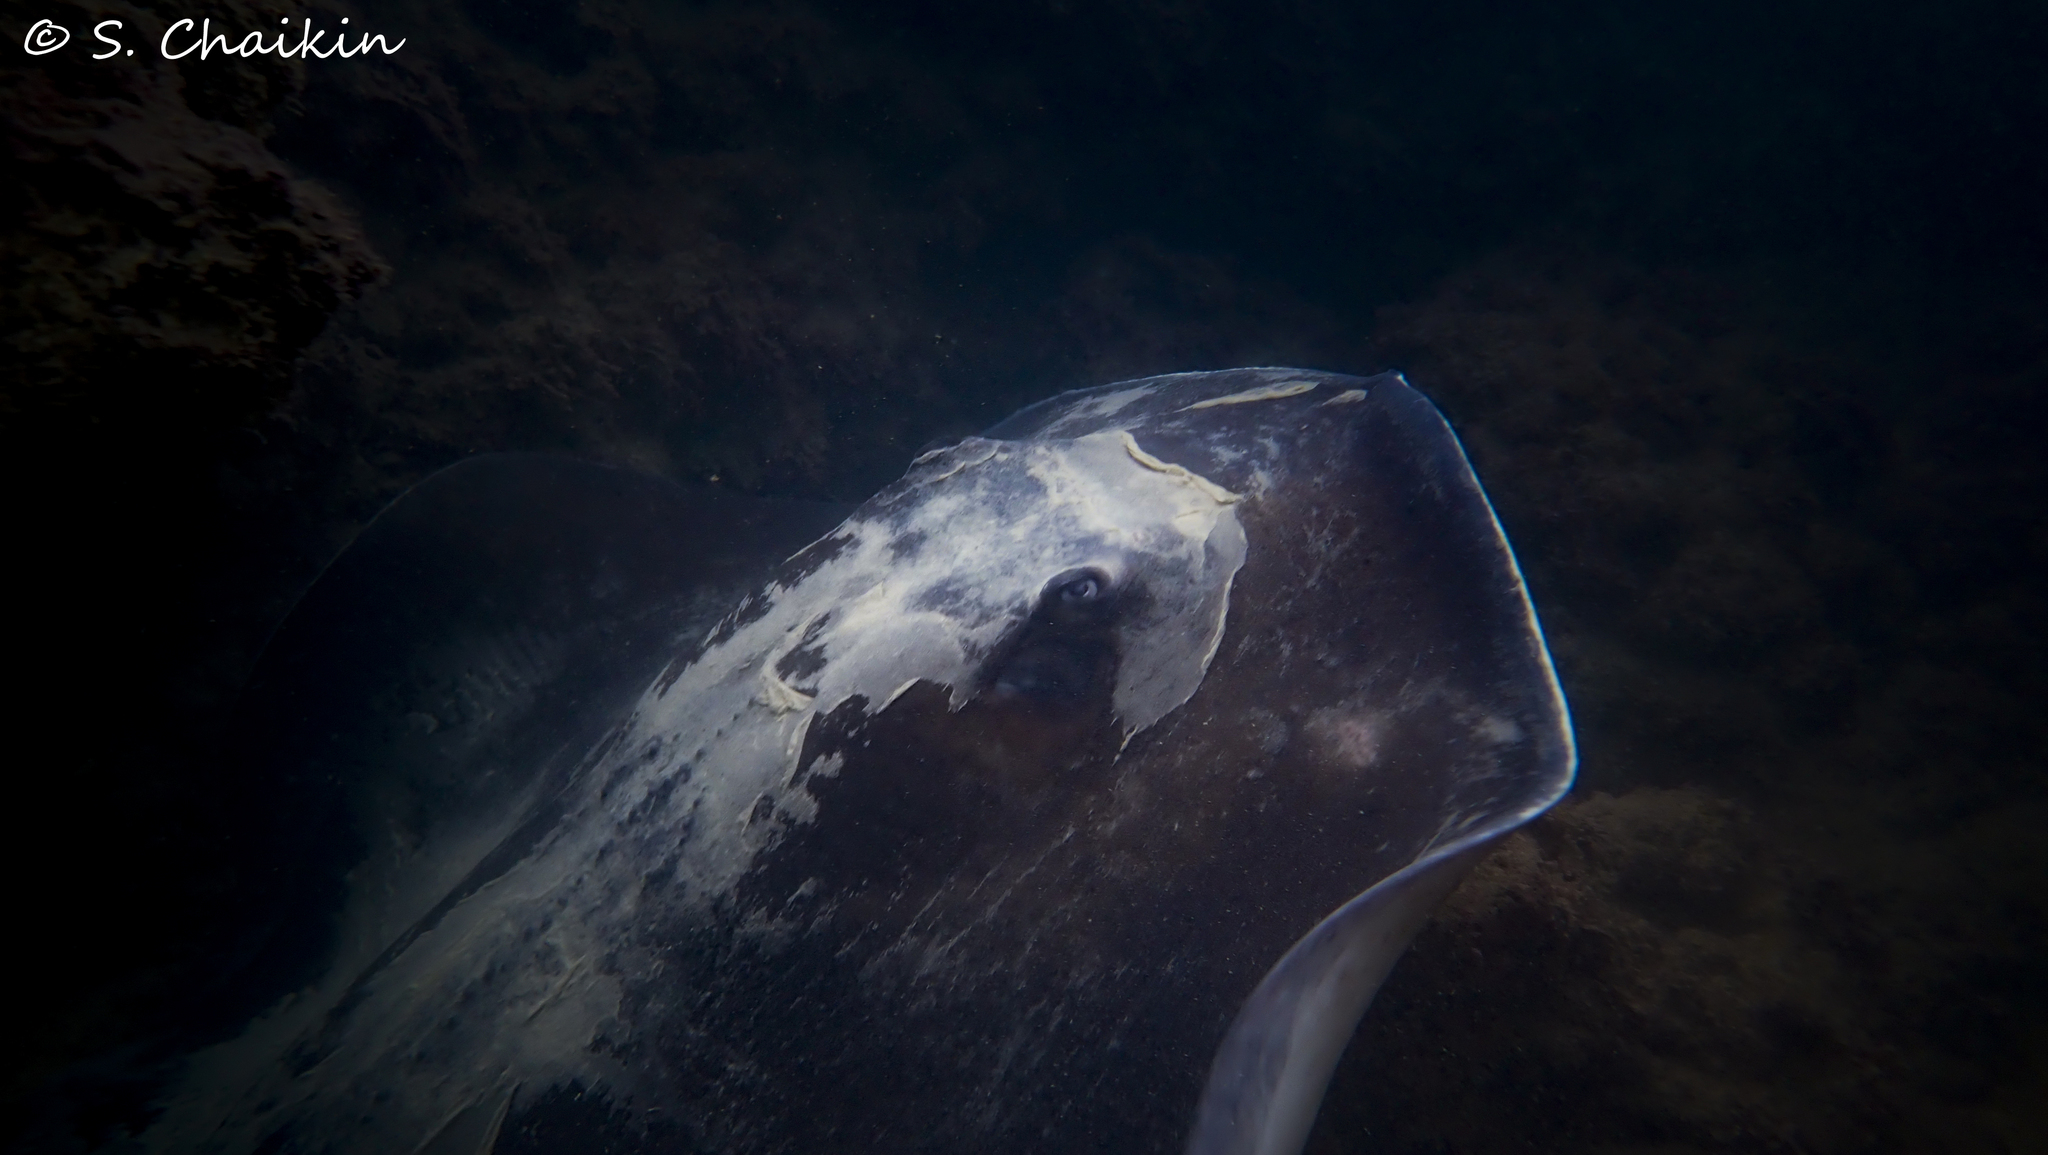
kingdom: Animalia
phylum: Chordata
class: Elasmobranchii
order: Myliobatiformes
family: Dasyatidae
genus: Taeniura
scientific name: Taeniura grabata
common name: Round stingray
